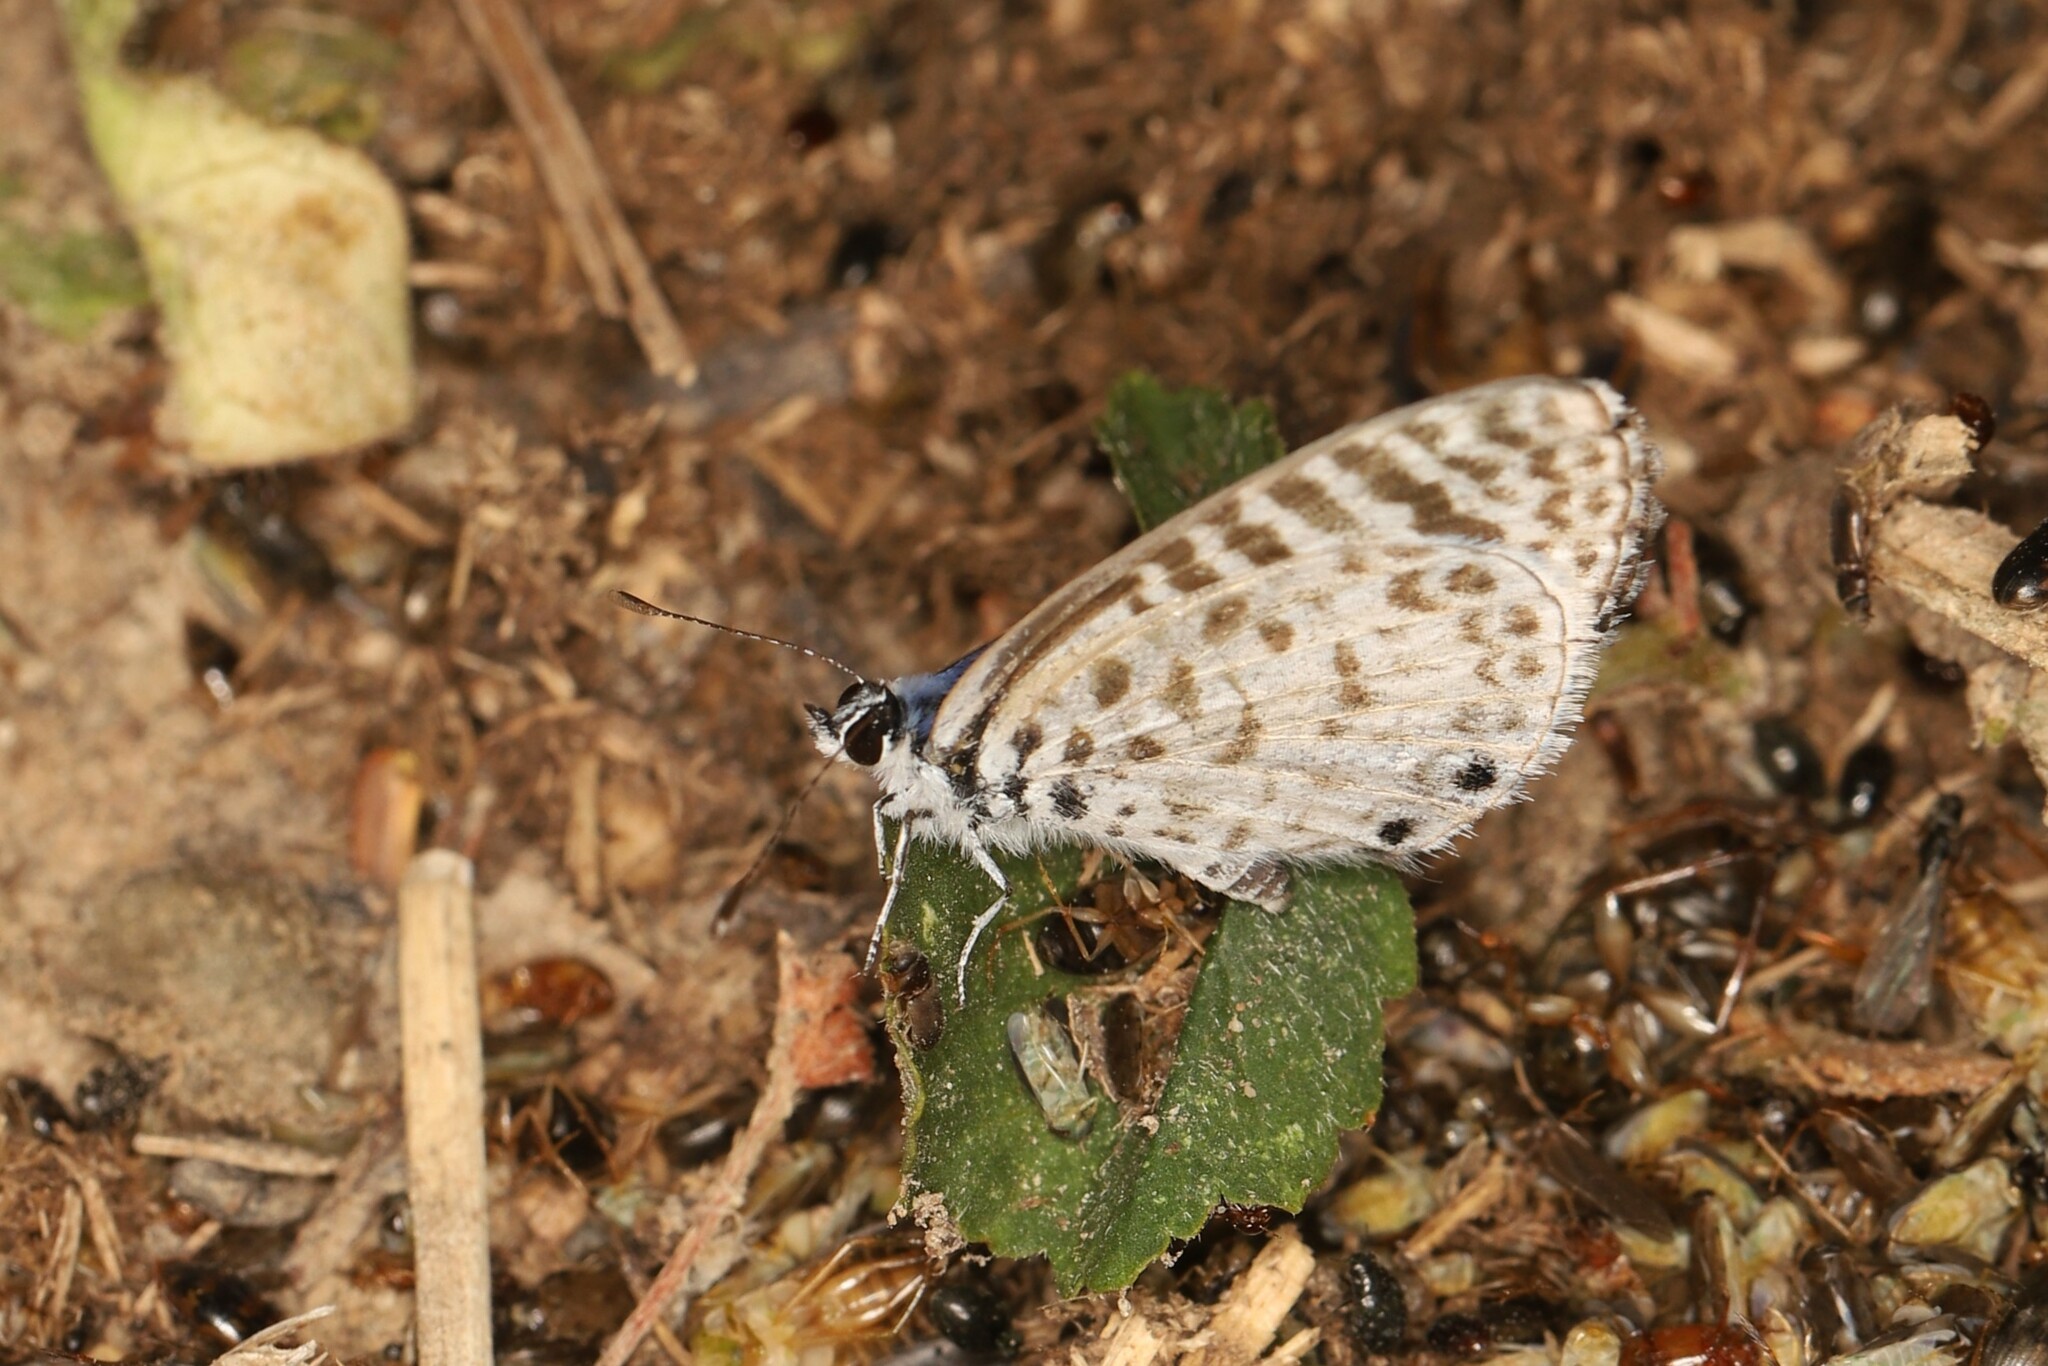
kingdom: Animalia
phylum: Arthropoda
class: Insecta
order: Lepidoptera
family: Lycaenidae
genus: Leptotes
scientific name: Leptotes cassius
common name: Cassius blue
